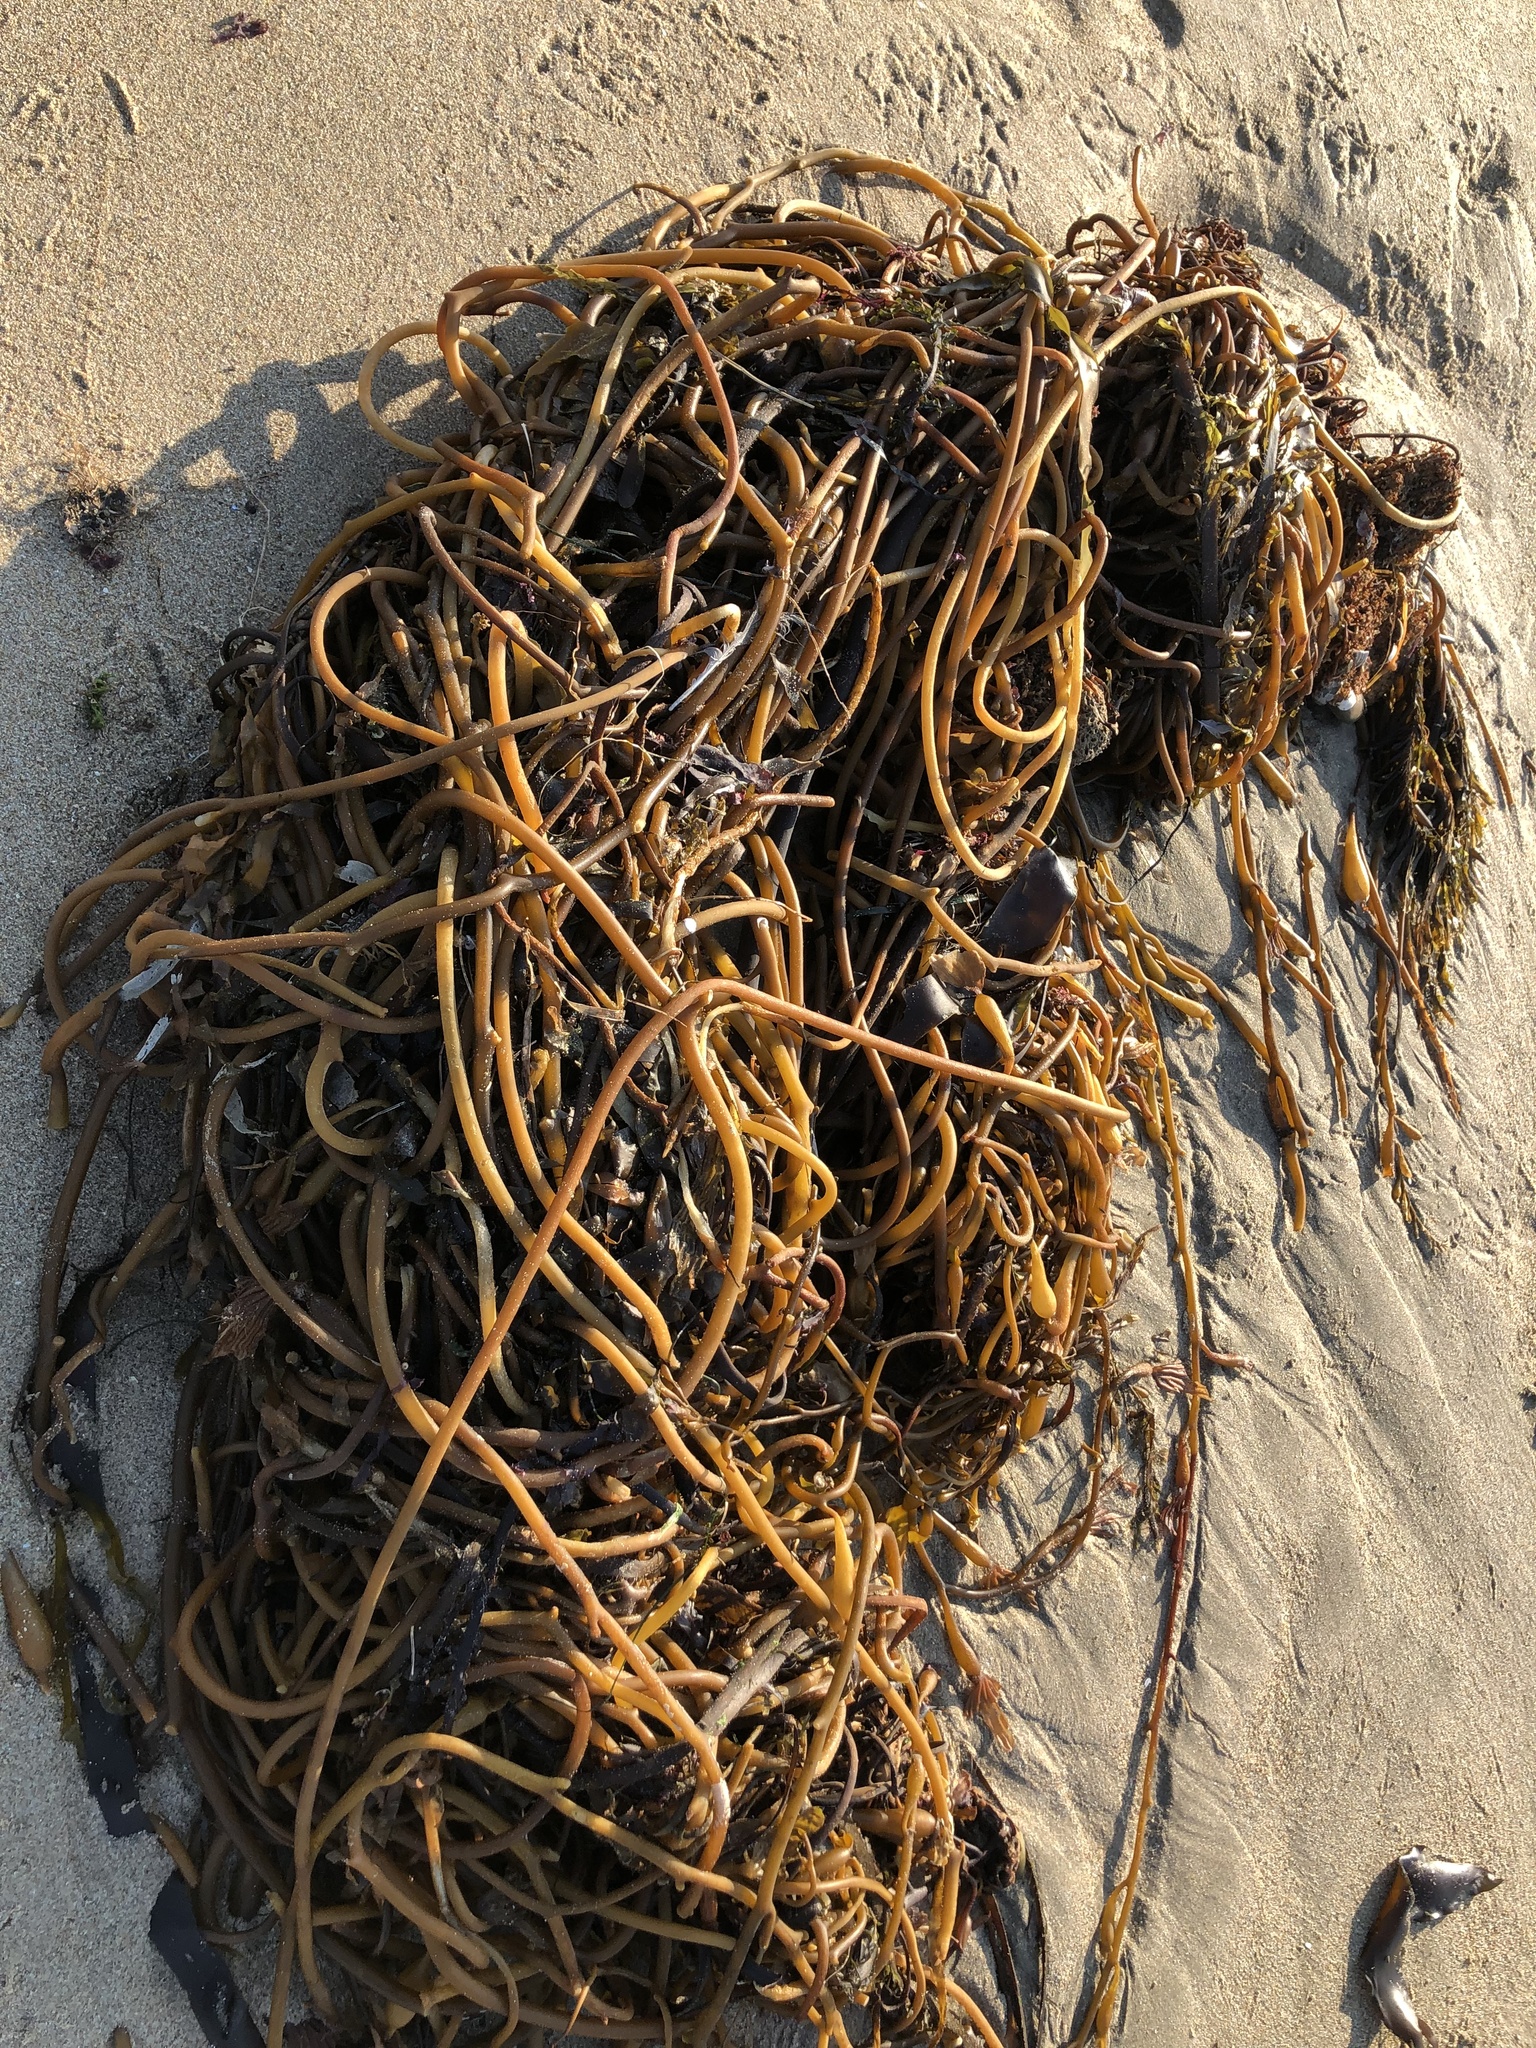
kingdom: Chromista
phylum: Ochrophyta
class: Phaeophyceae
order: Laminariales
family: Laminariaceae
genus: Macrocystis
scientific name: Macrocystis pyrifera
